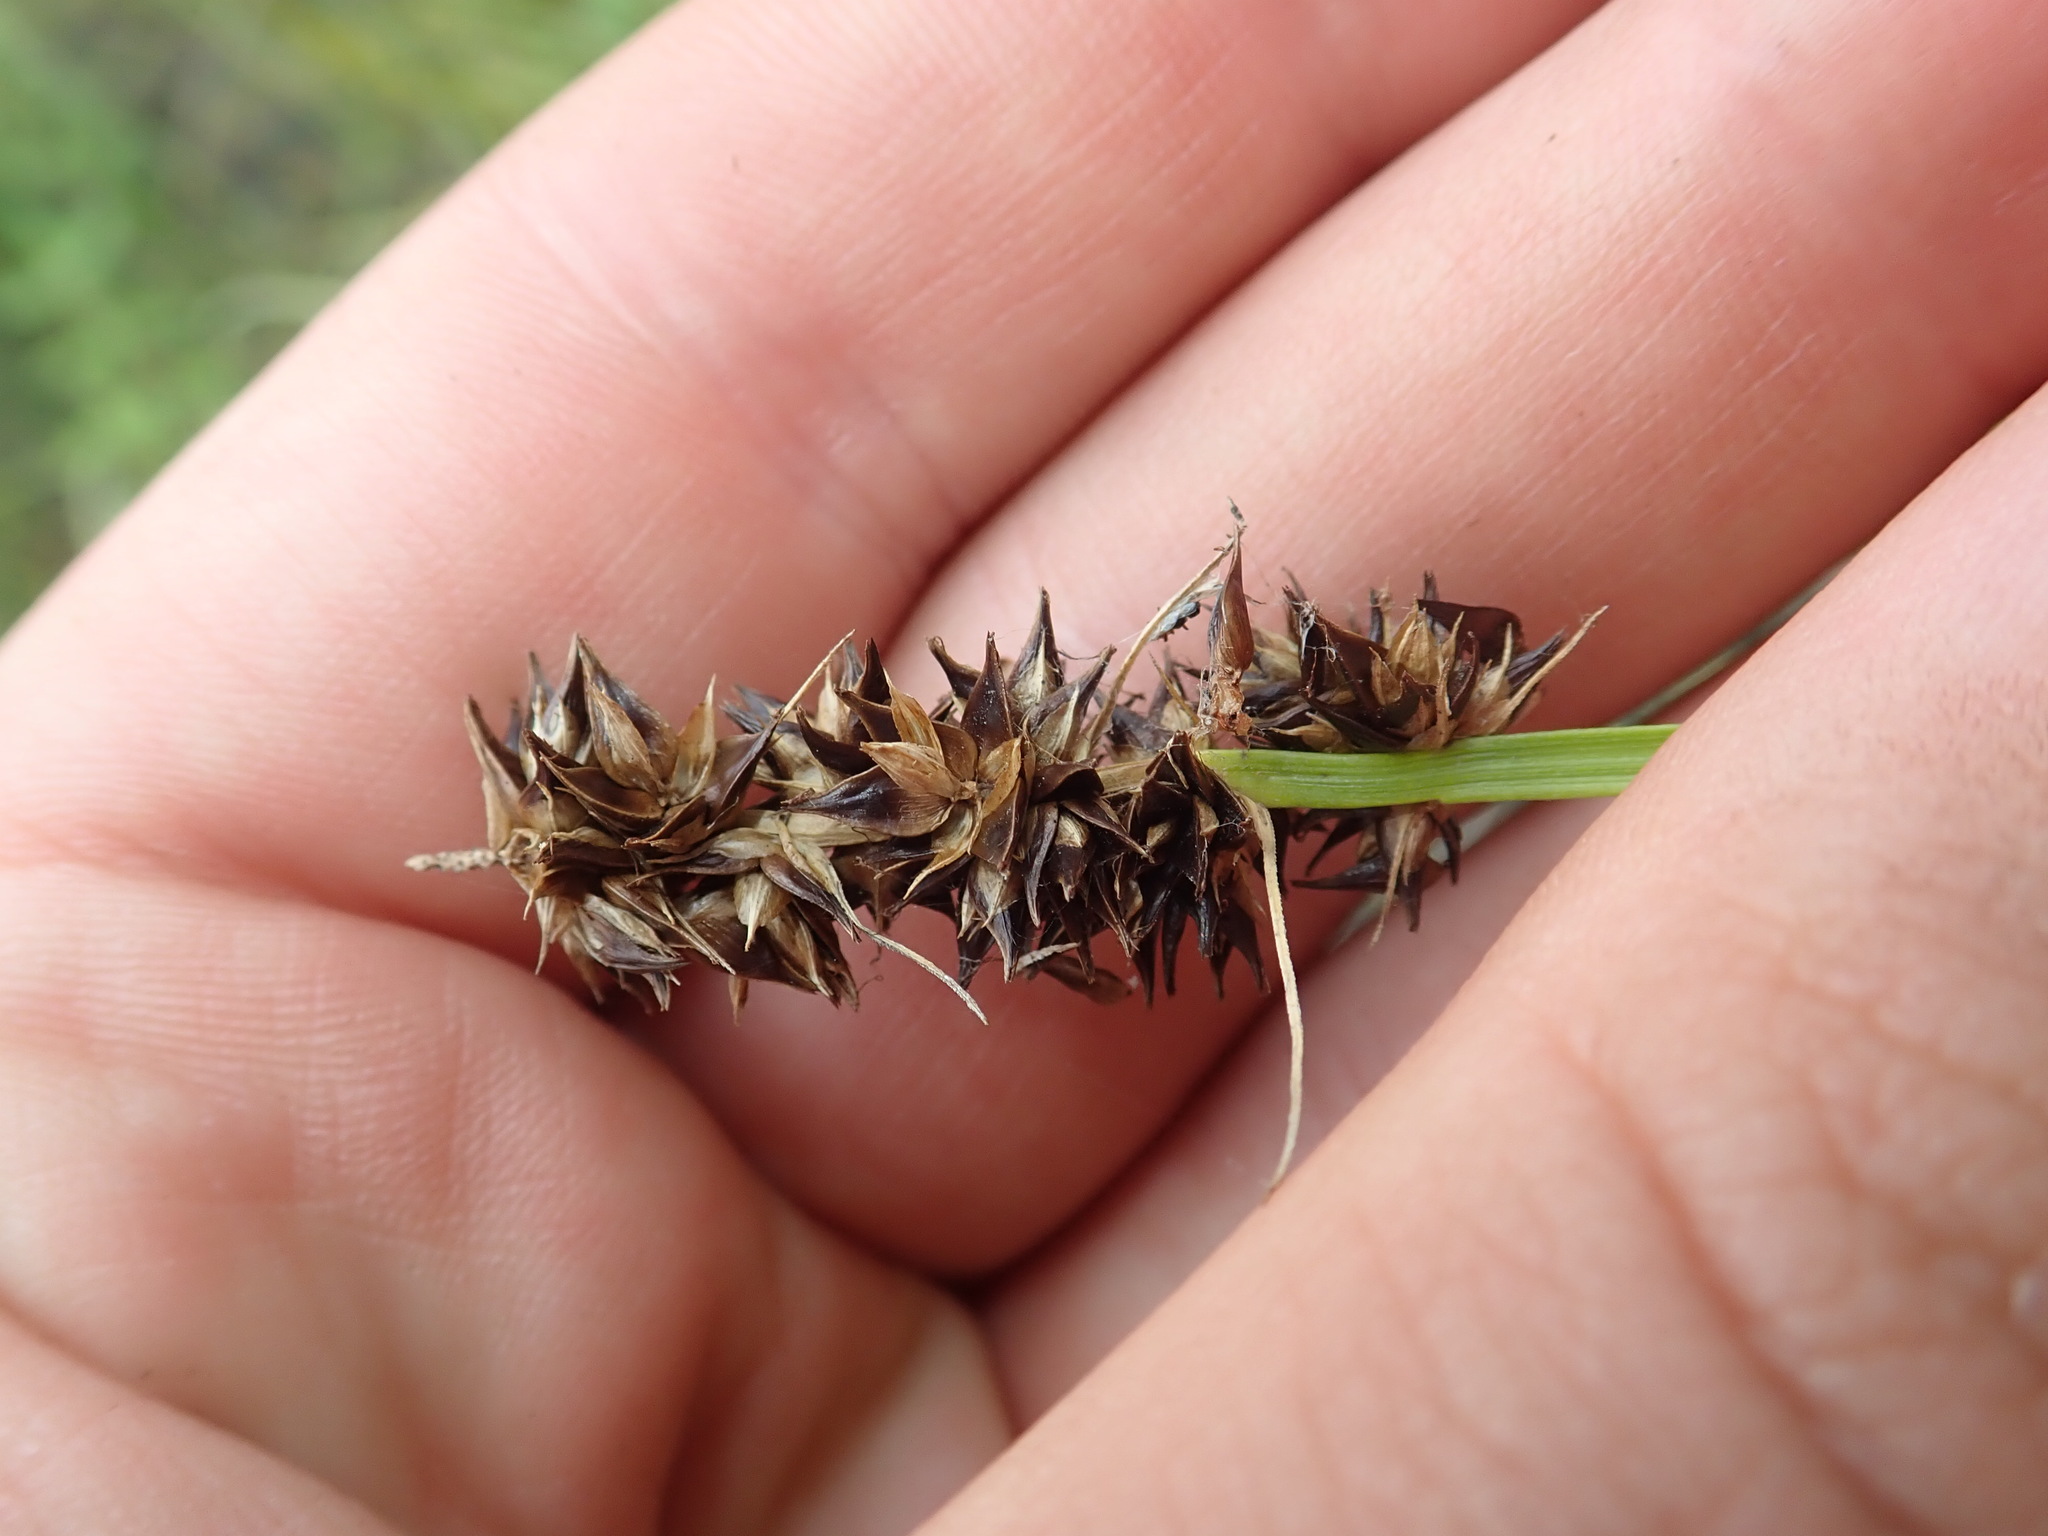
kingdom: Plantae
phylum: Tracheophyta
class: Liliopsida
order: Poales
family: Cyperaceae
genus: Carex
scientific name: Carex otrubae
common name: False fox-sedge
